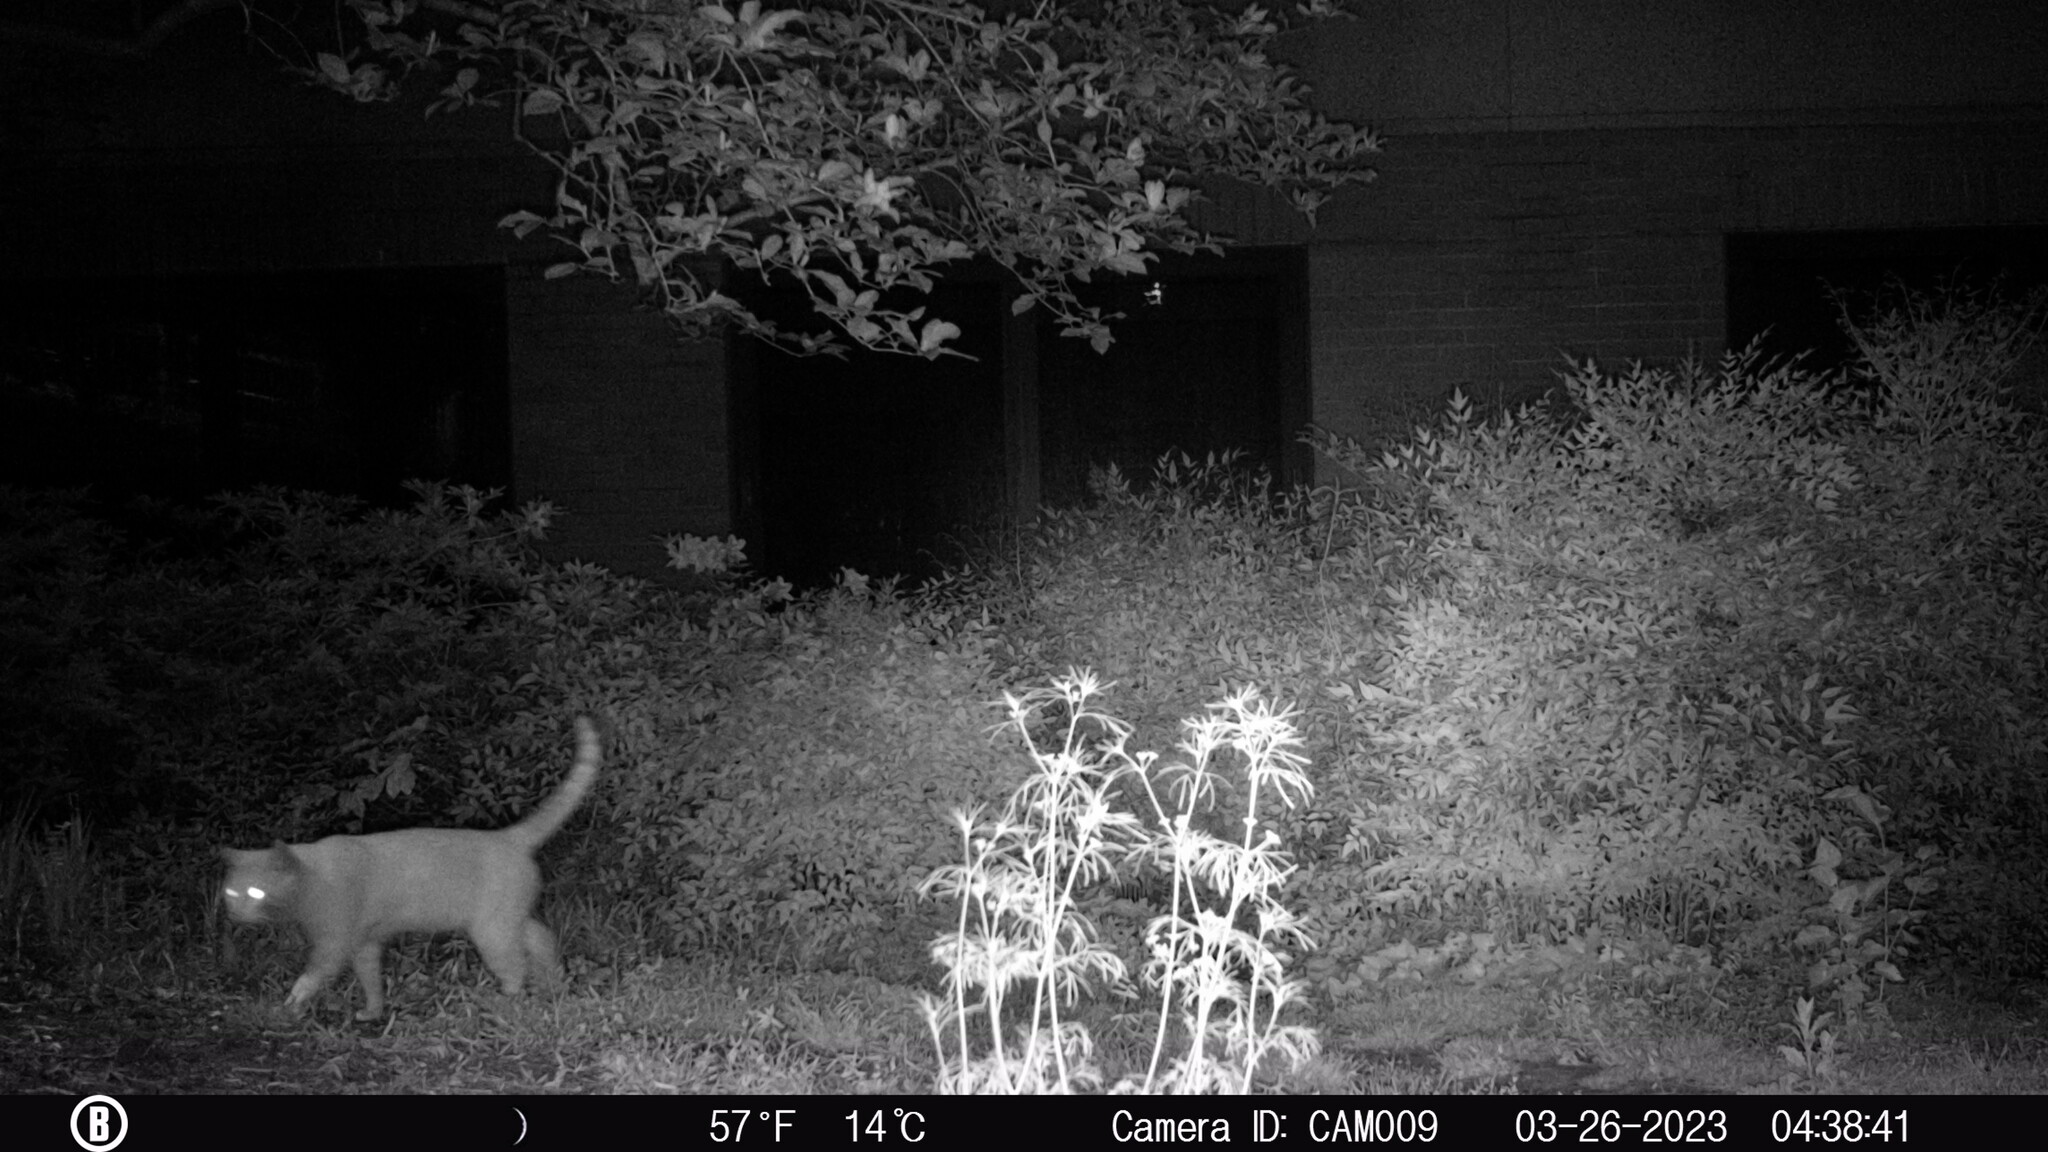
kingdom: Animalia
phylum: Chordata
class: Mammalia
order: Carnivora
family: Felidae
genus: Felis
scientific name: Felis catus
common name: Domestic cat
